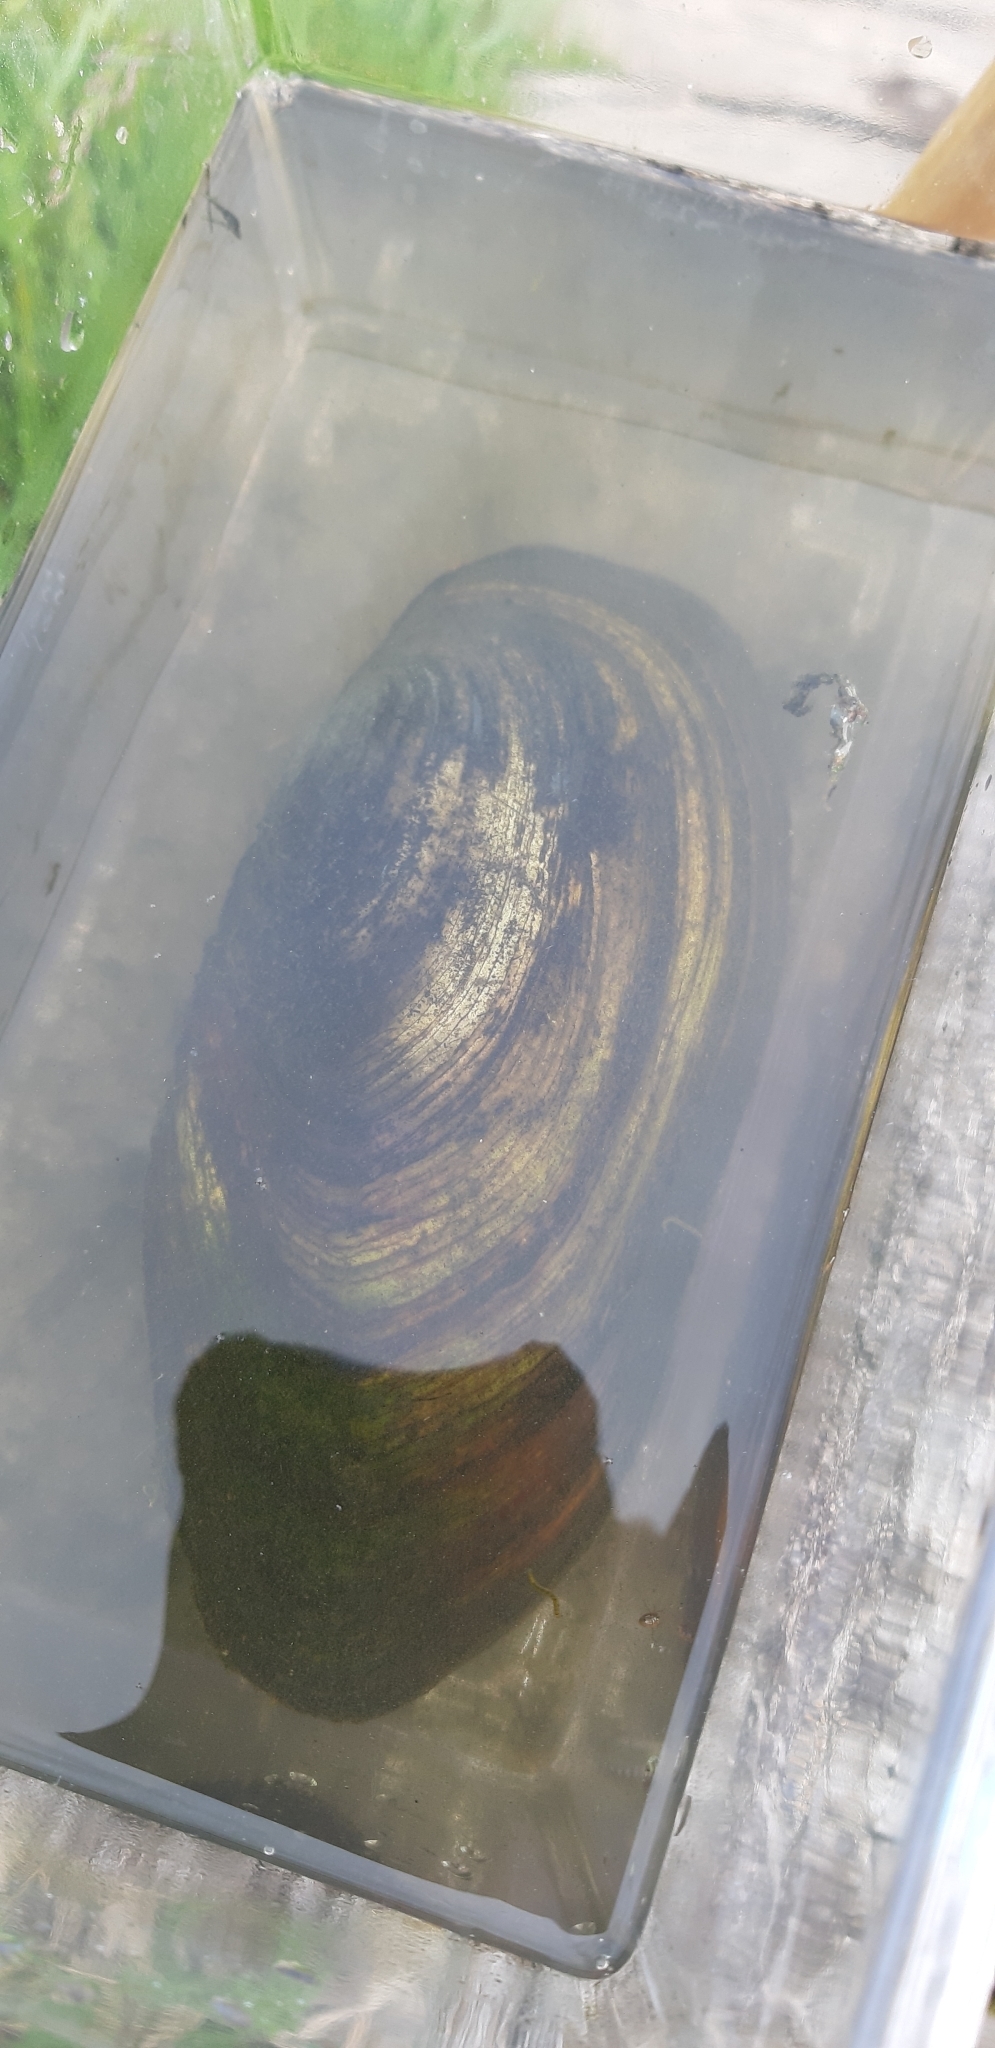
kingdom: Animalia
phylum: Mollusca
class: Bivalvia
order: Unionida
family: Unionidae
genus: Anodonta
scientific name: Anodonta cygnea
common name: Swan mussel
